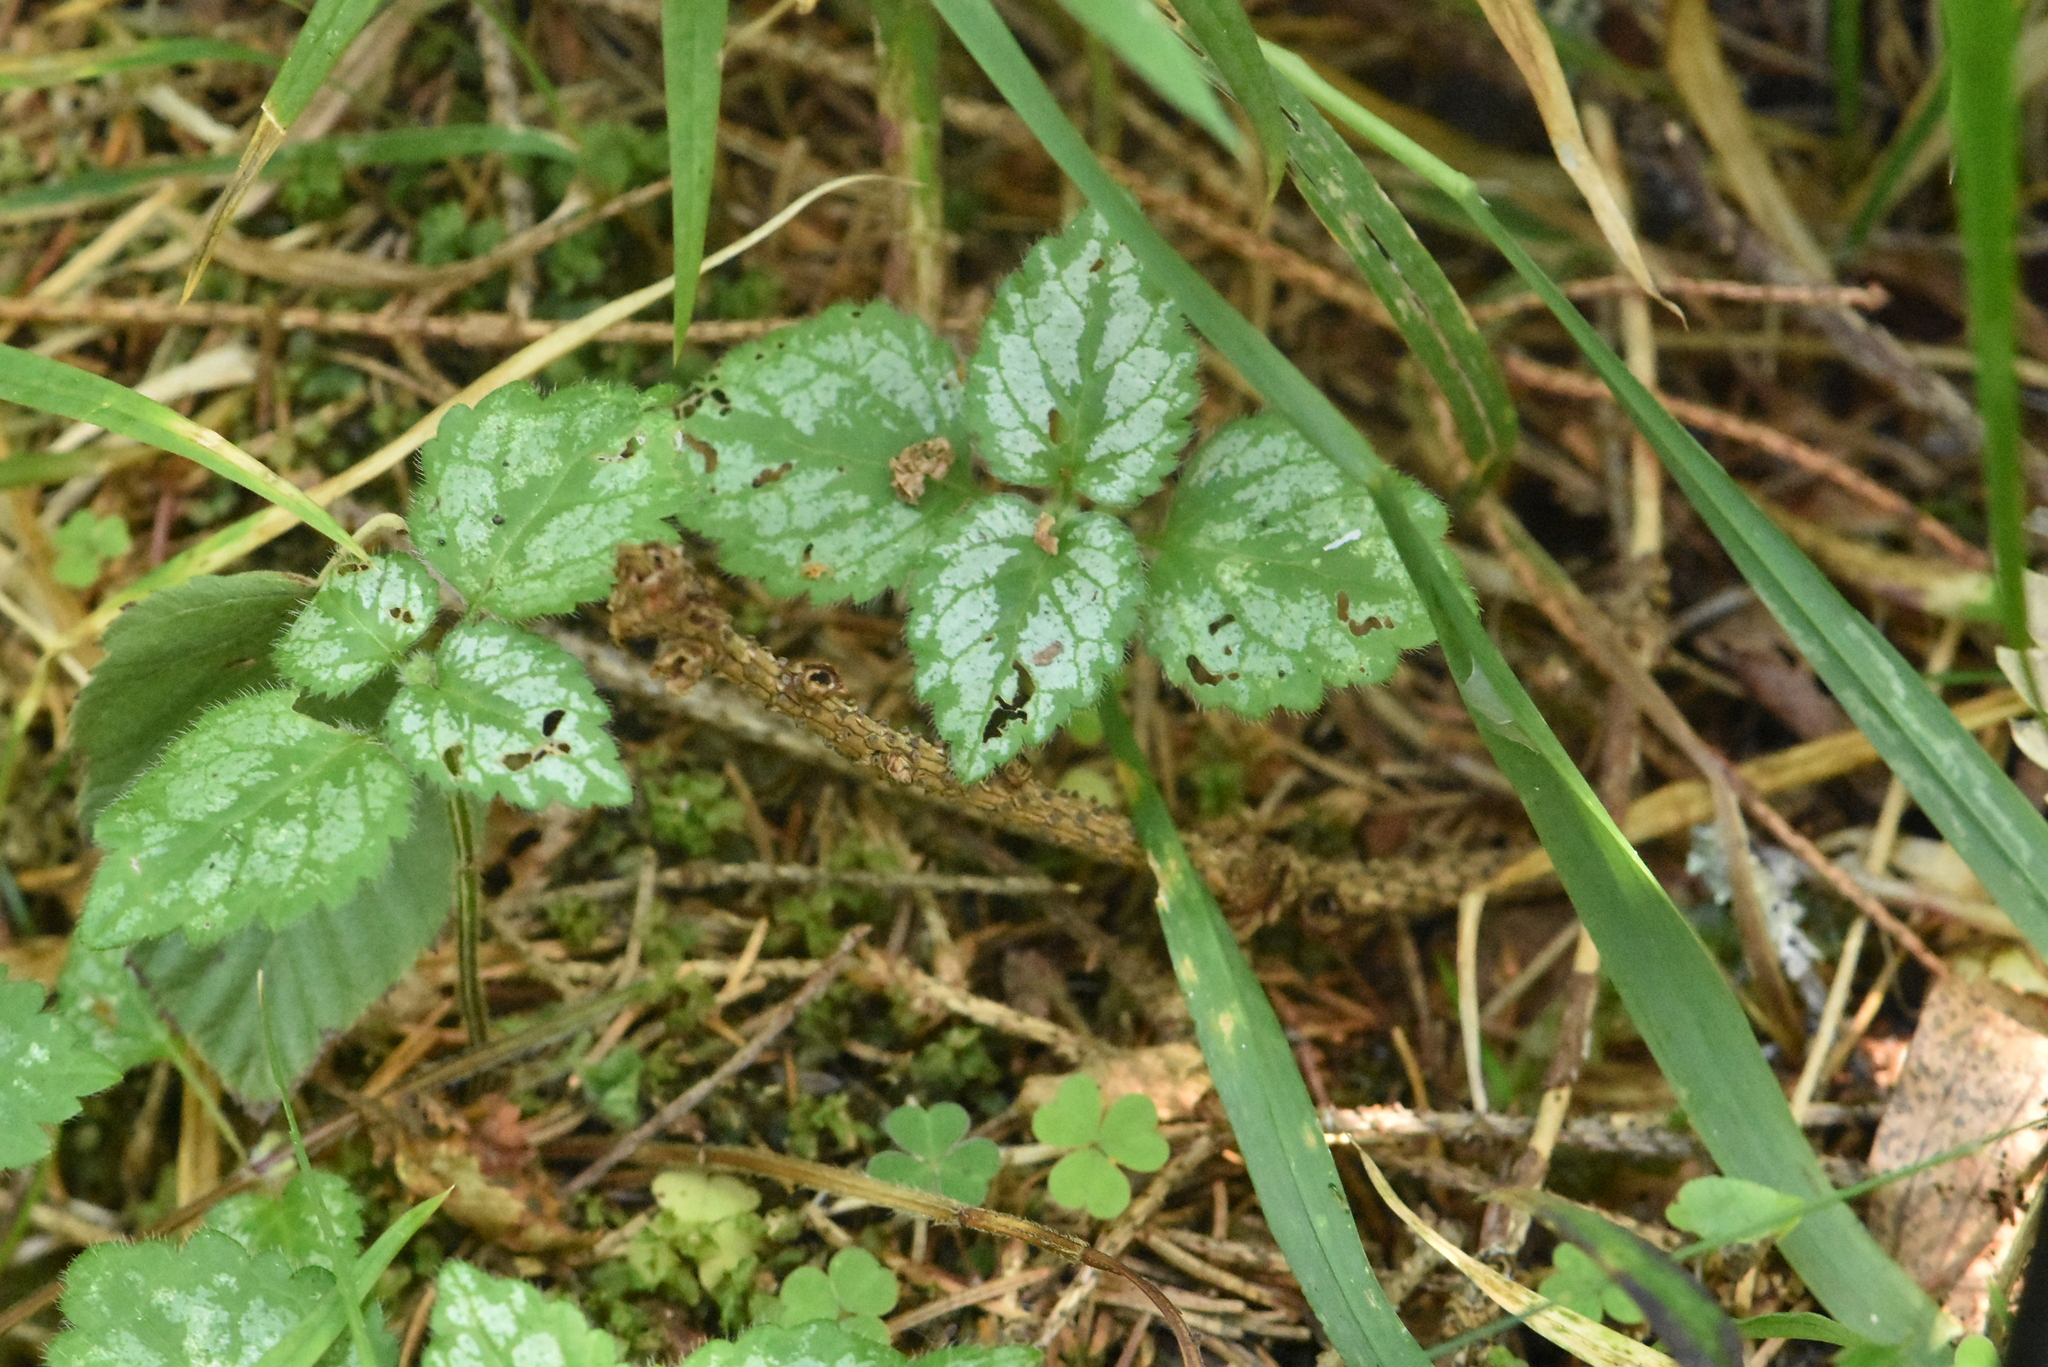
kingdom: Plantae
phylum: Tracheophyta
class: Magnoliopsida
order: Lamiales
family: Lamiaceae
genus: Lamium
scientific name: Lamium galeobdolon
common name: Yellow archangel
